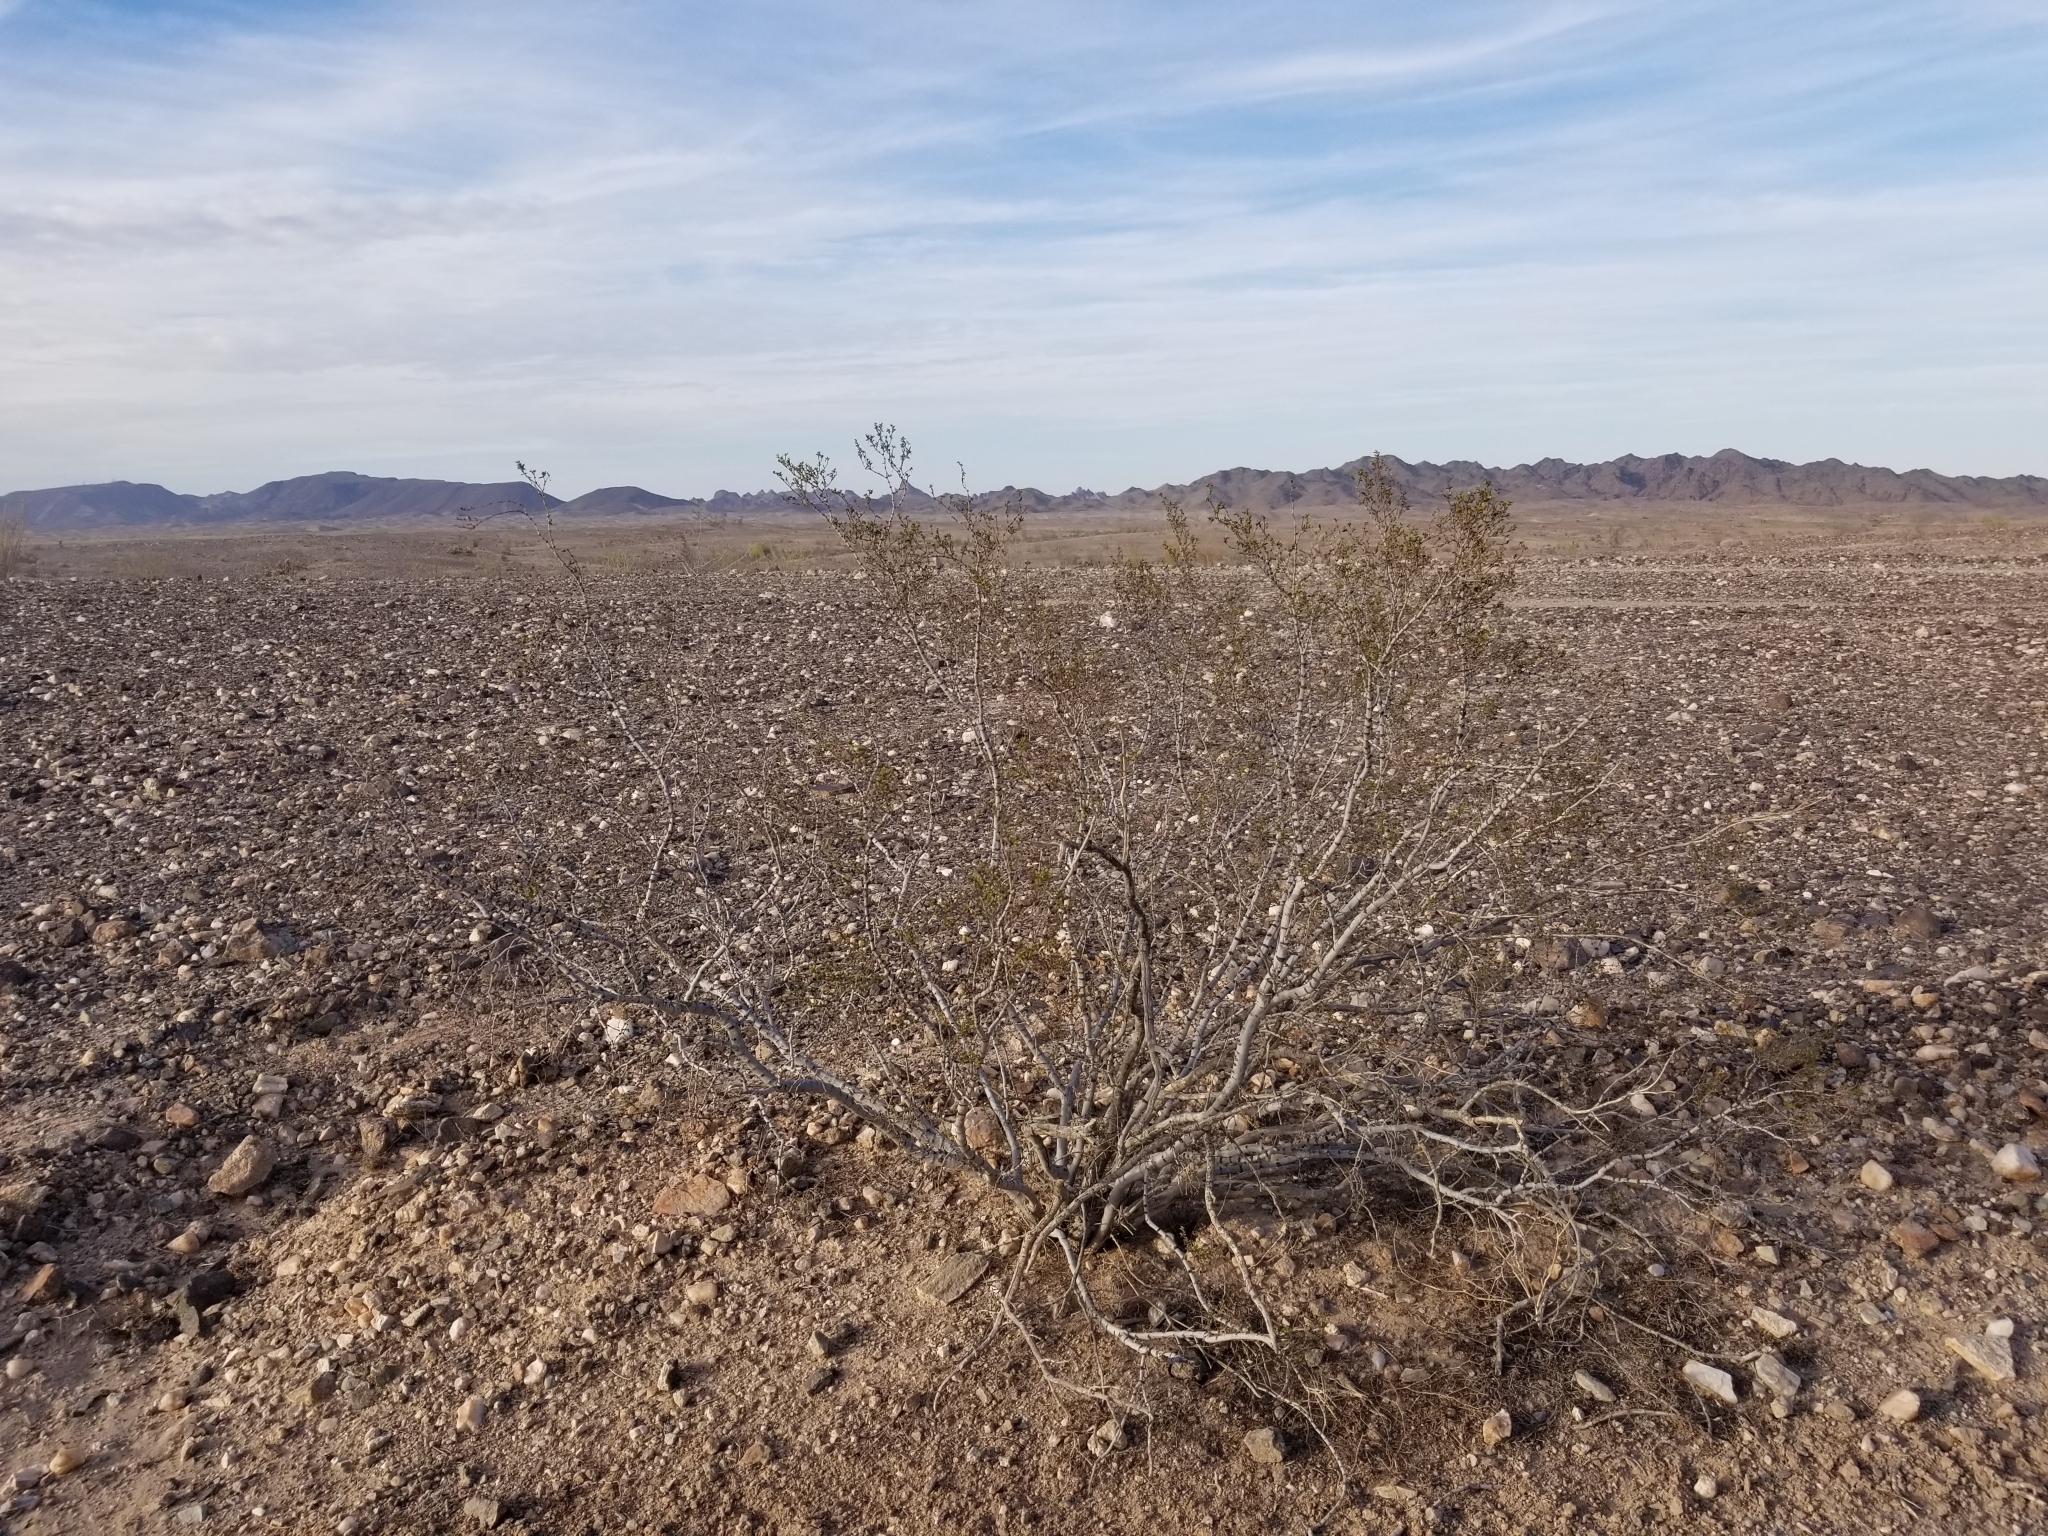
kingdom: Plantae
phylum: Tracheophyta
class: Magnoliopsida
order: Zygophyllales
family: Zygophyllaceae
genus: Larrea
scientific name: Larrea tridentata
